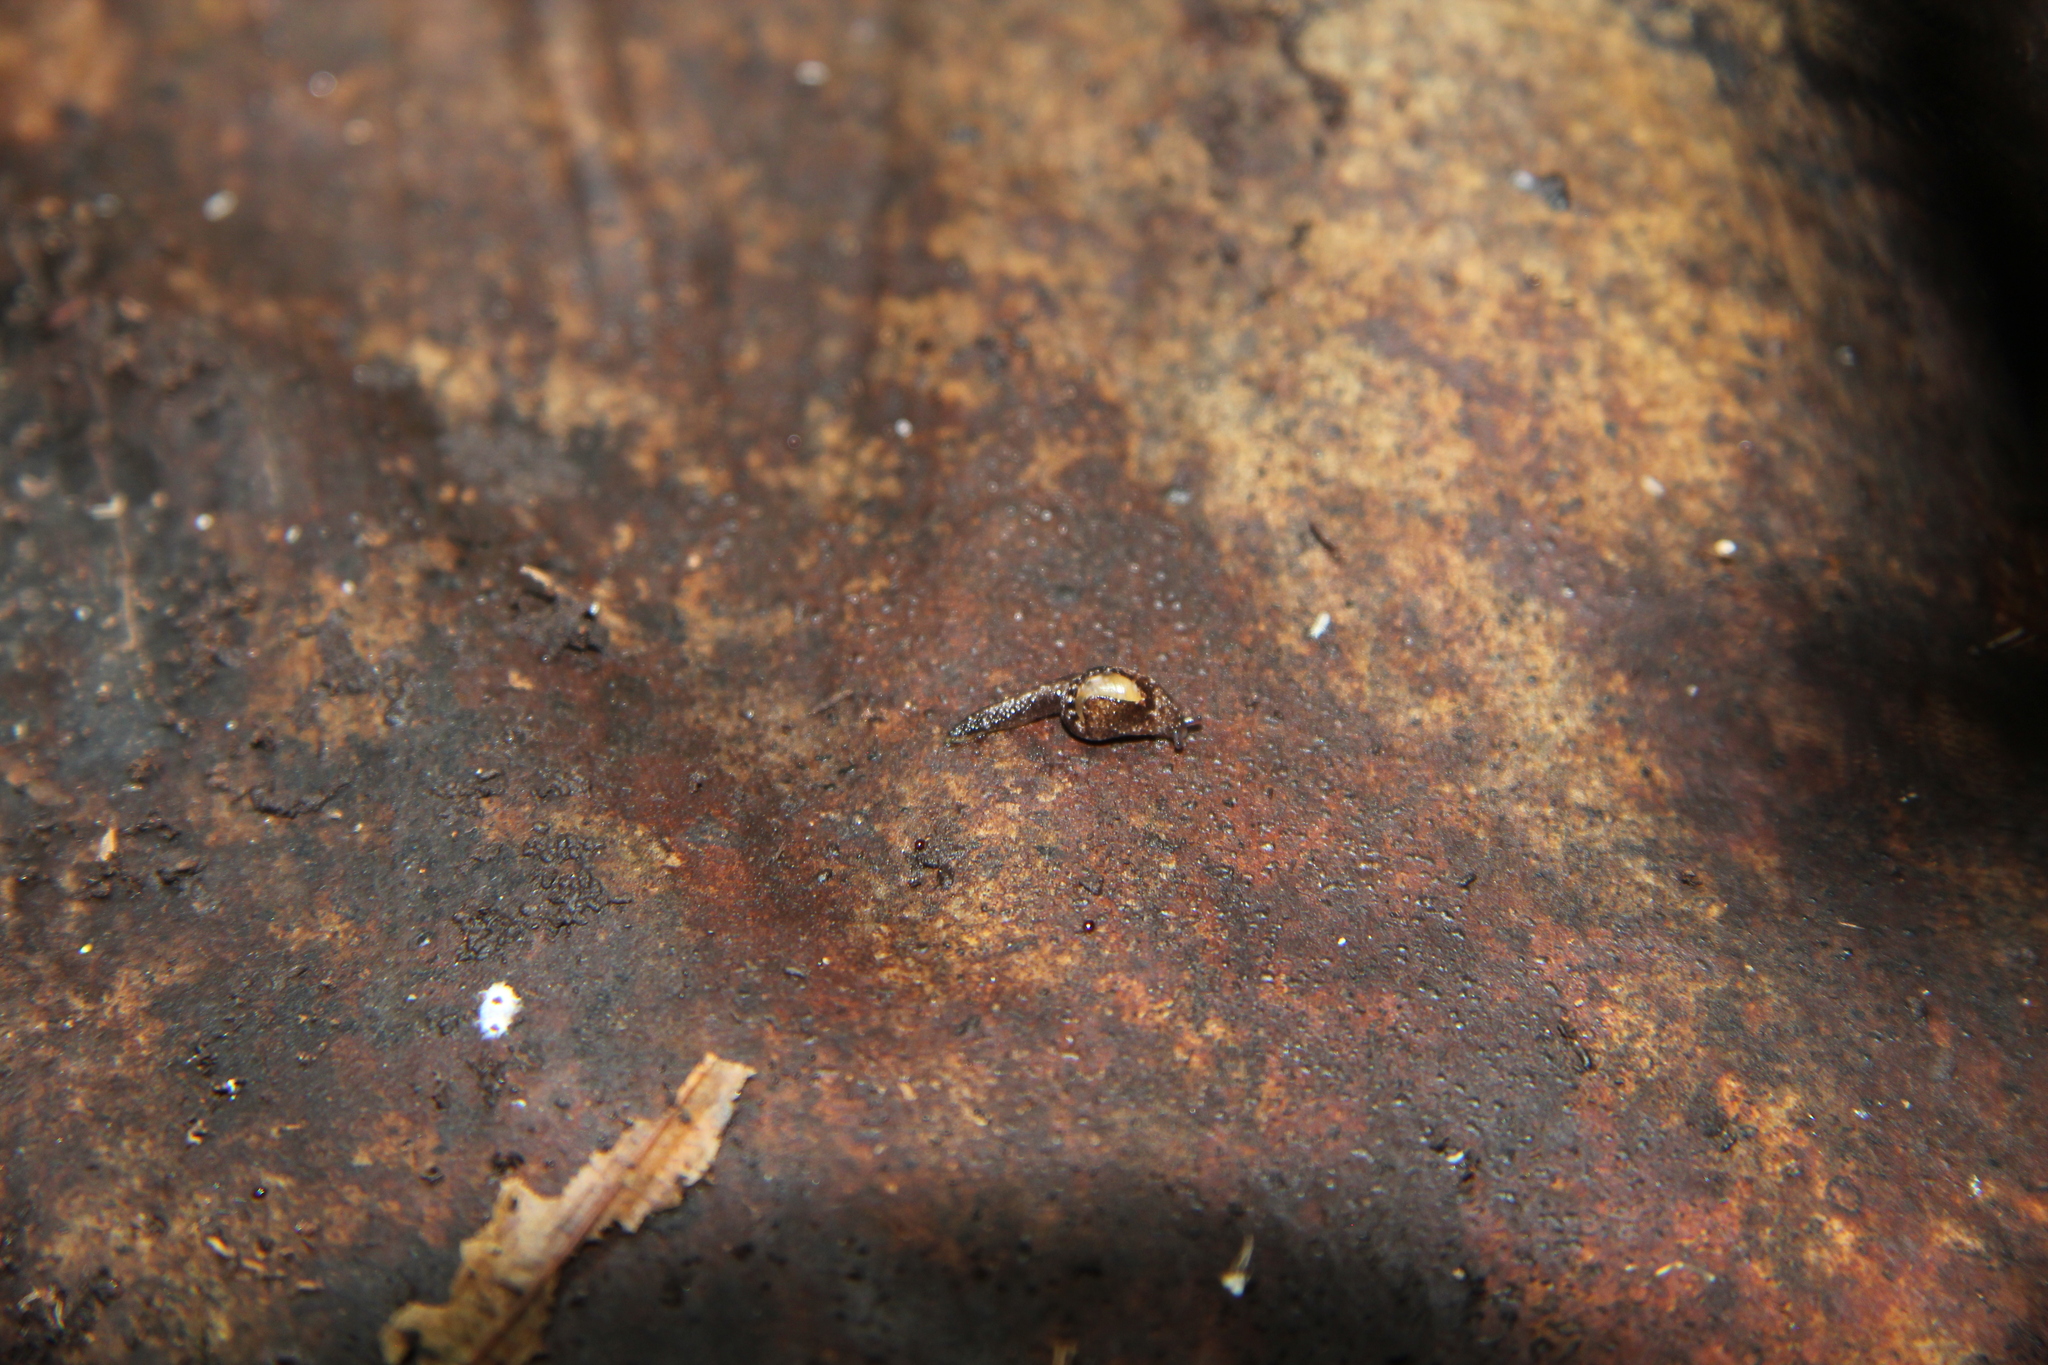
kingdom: Animalia
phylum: Mollusca
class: Gastropoda
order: Stylommatophora
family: Charopidae
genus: Otoconcha
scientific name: Otoconcha dimidiata
